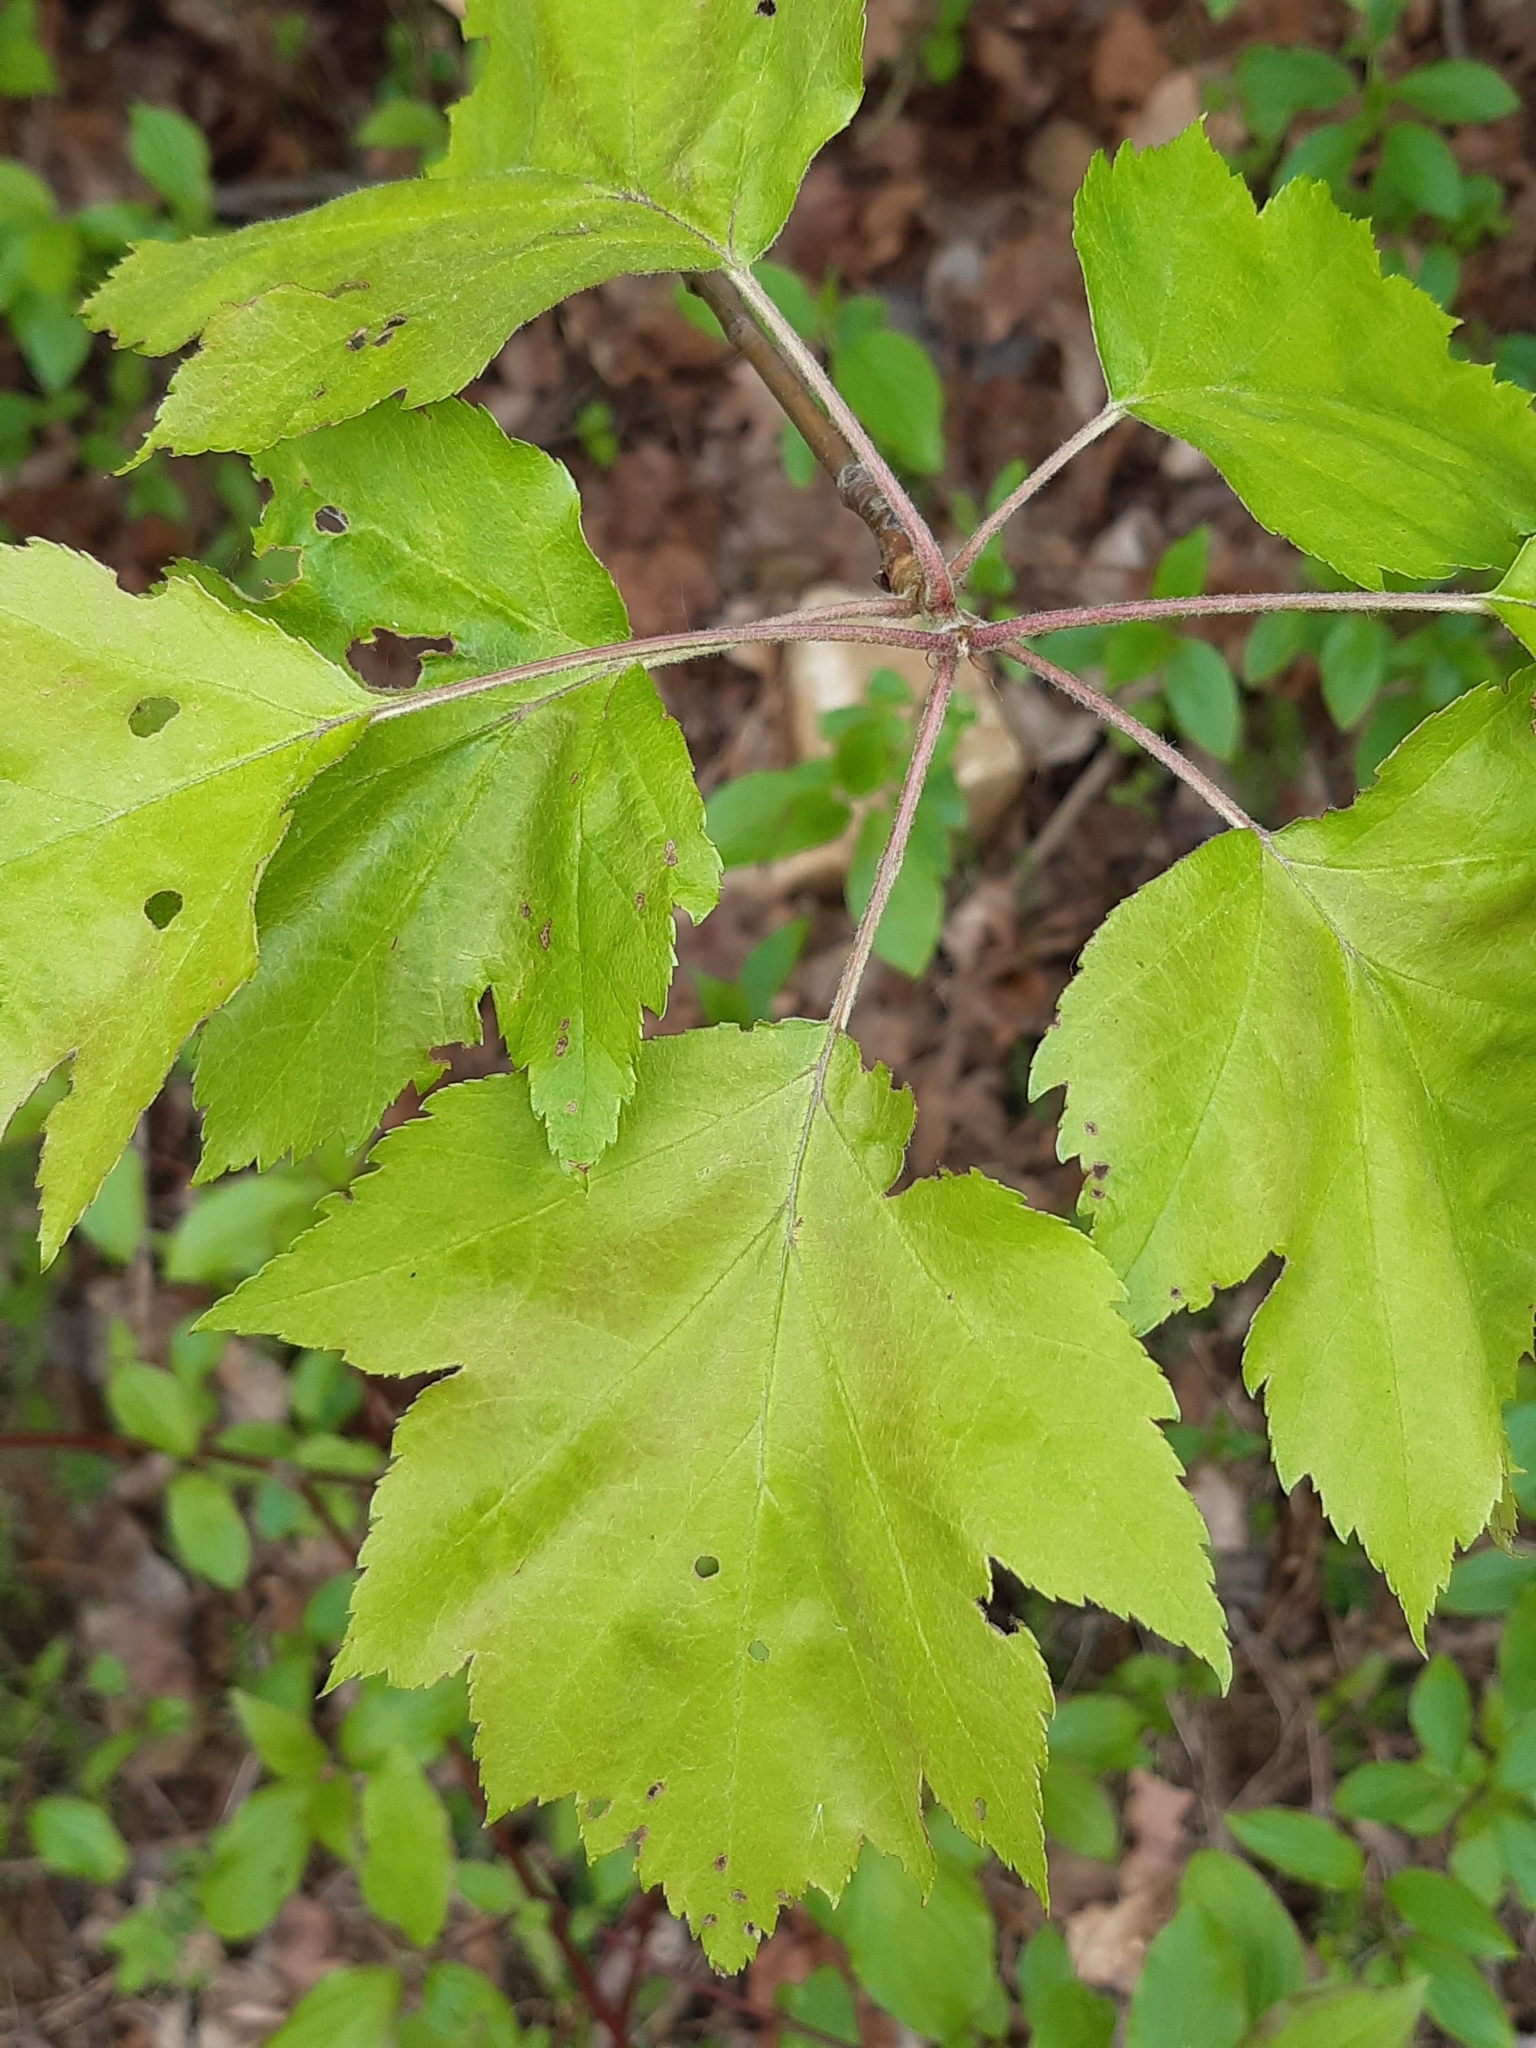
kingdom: Plantae
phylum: Tracheophyta
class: Magnoliopsida
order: Rosales
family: Rosaceae
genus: Torminalis
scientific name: Torminalis glaberrima
